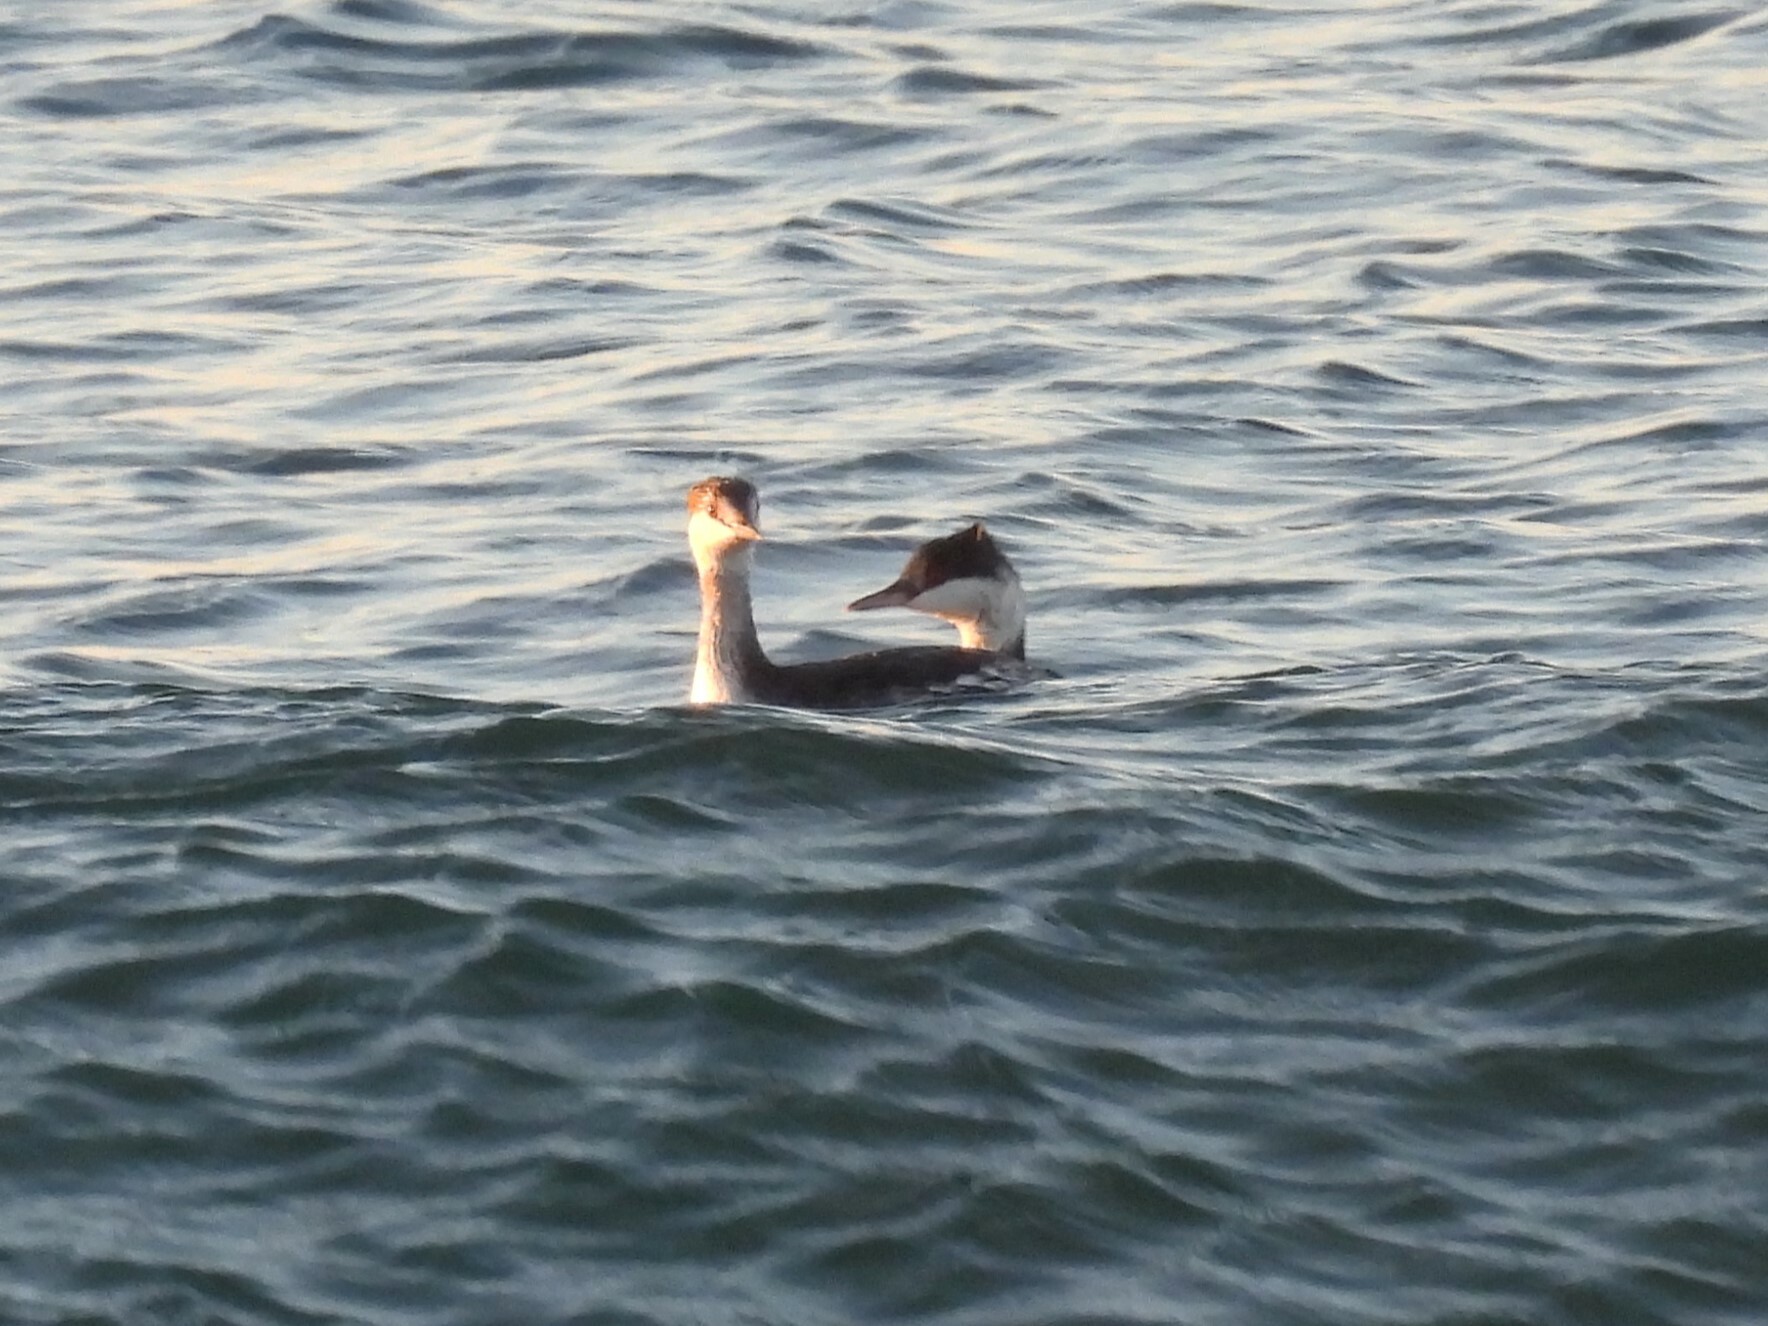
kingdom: Animalia
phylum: Chordata
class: Aves
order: Podicipediformes
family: Podicipedidae
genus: Podiceps
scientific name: Podiceps auritus
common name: Horned grebe
